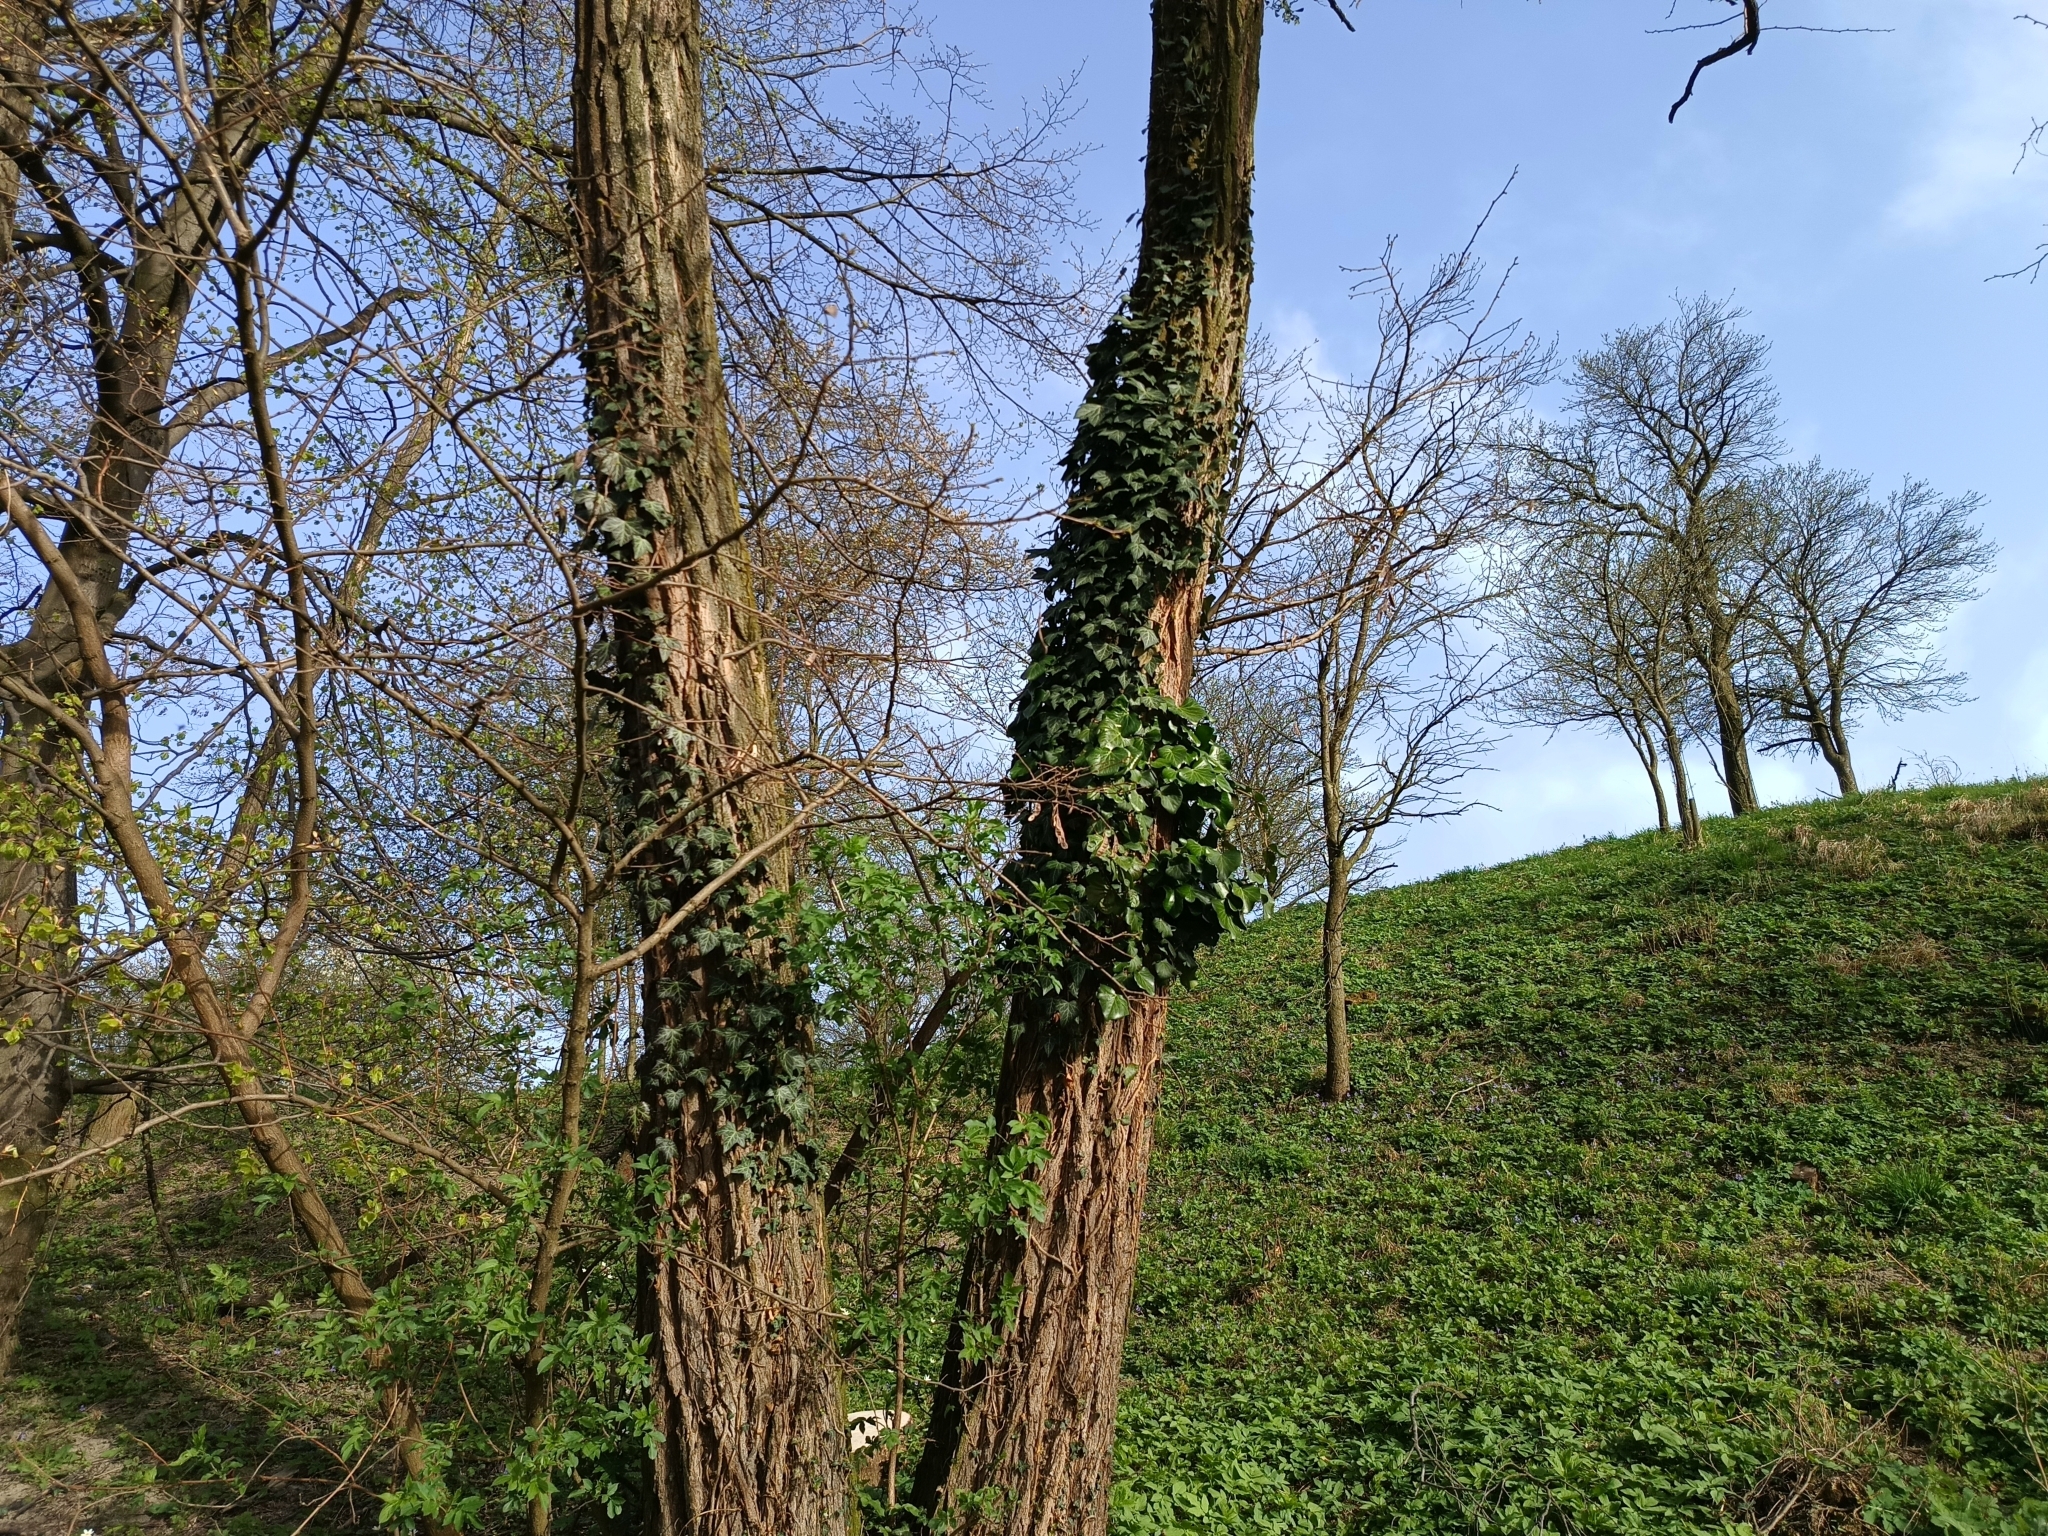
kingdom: Plantae
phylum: Tracheophyta
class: Magnoliopsida
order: Apiales
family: Araliaceae
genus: Hedera
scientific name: Hedera helix
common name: Ivy
